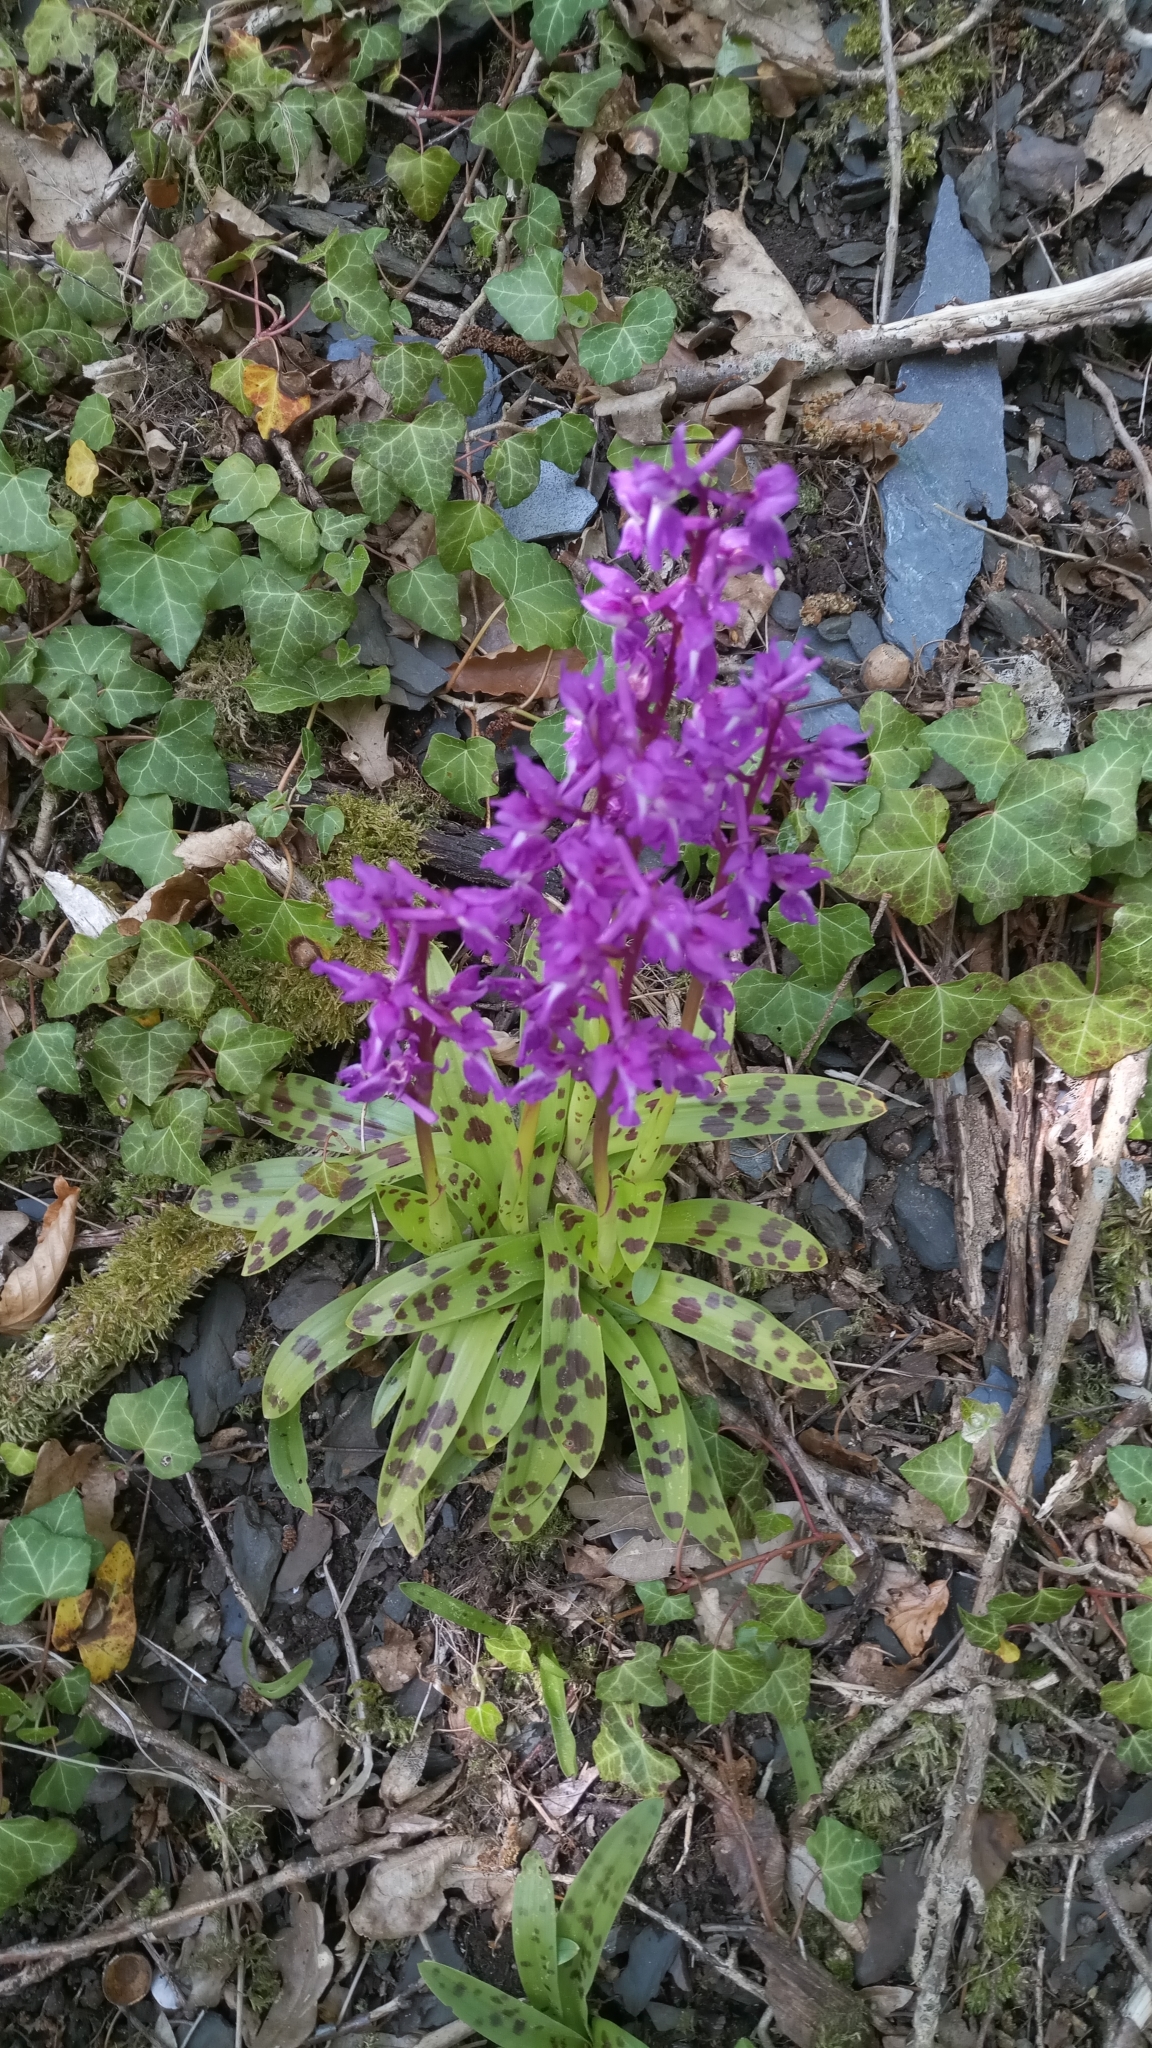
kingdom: Plantae
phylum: Tracheophyta
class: Liliopsida
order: Asparagales
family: Orchidaceae
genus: Orchis
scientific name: Orchis mascula
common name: Early-purple orchid
